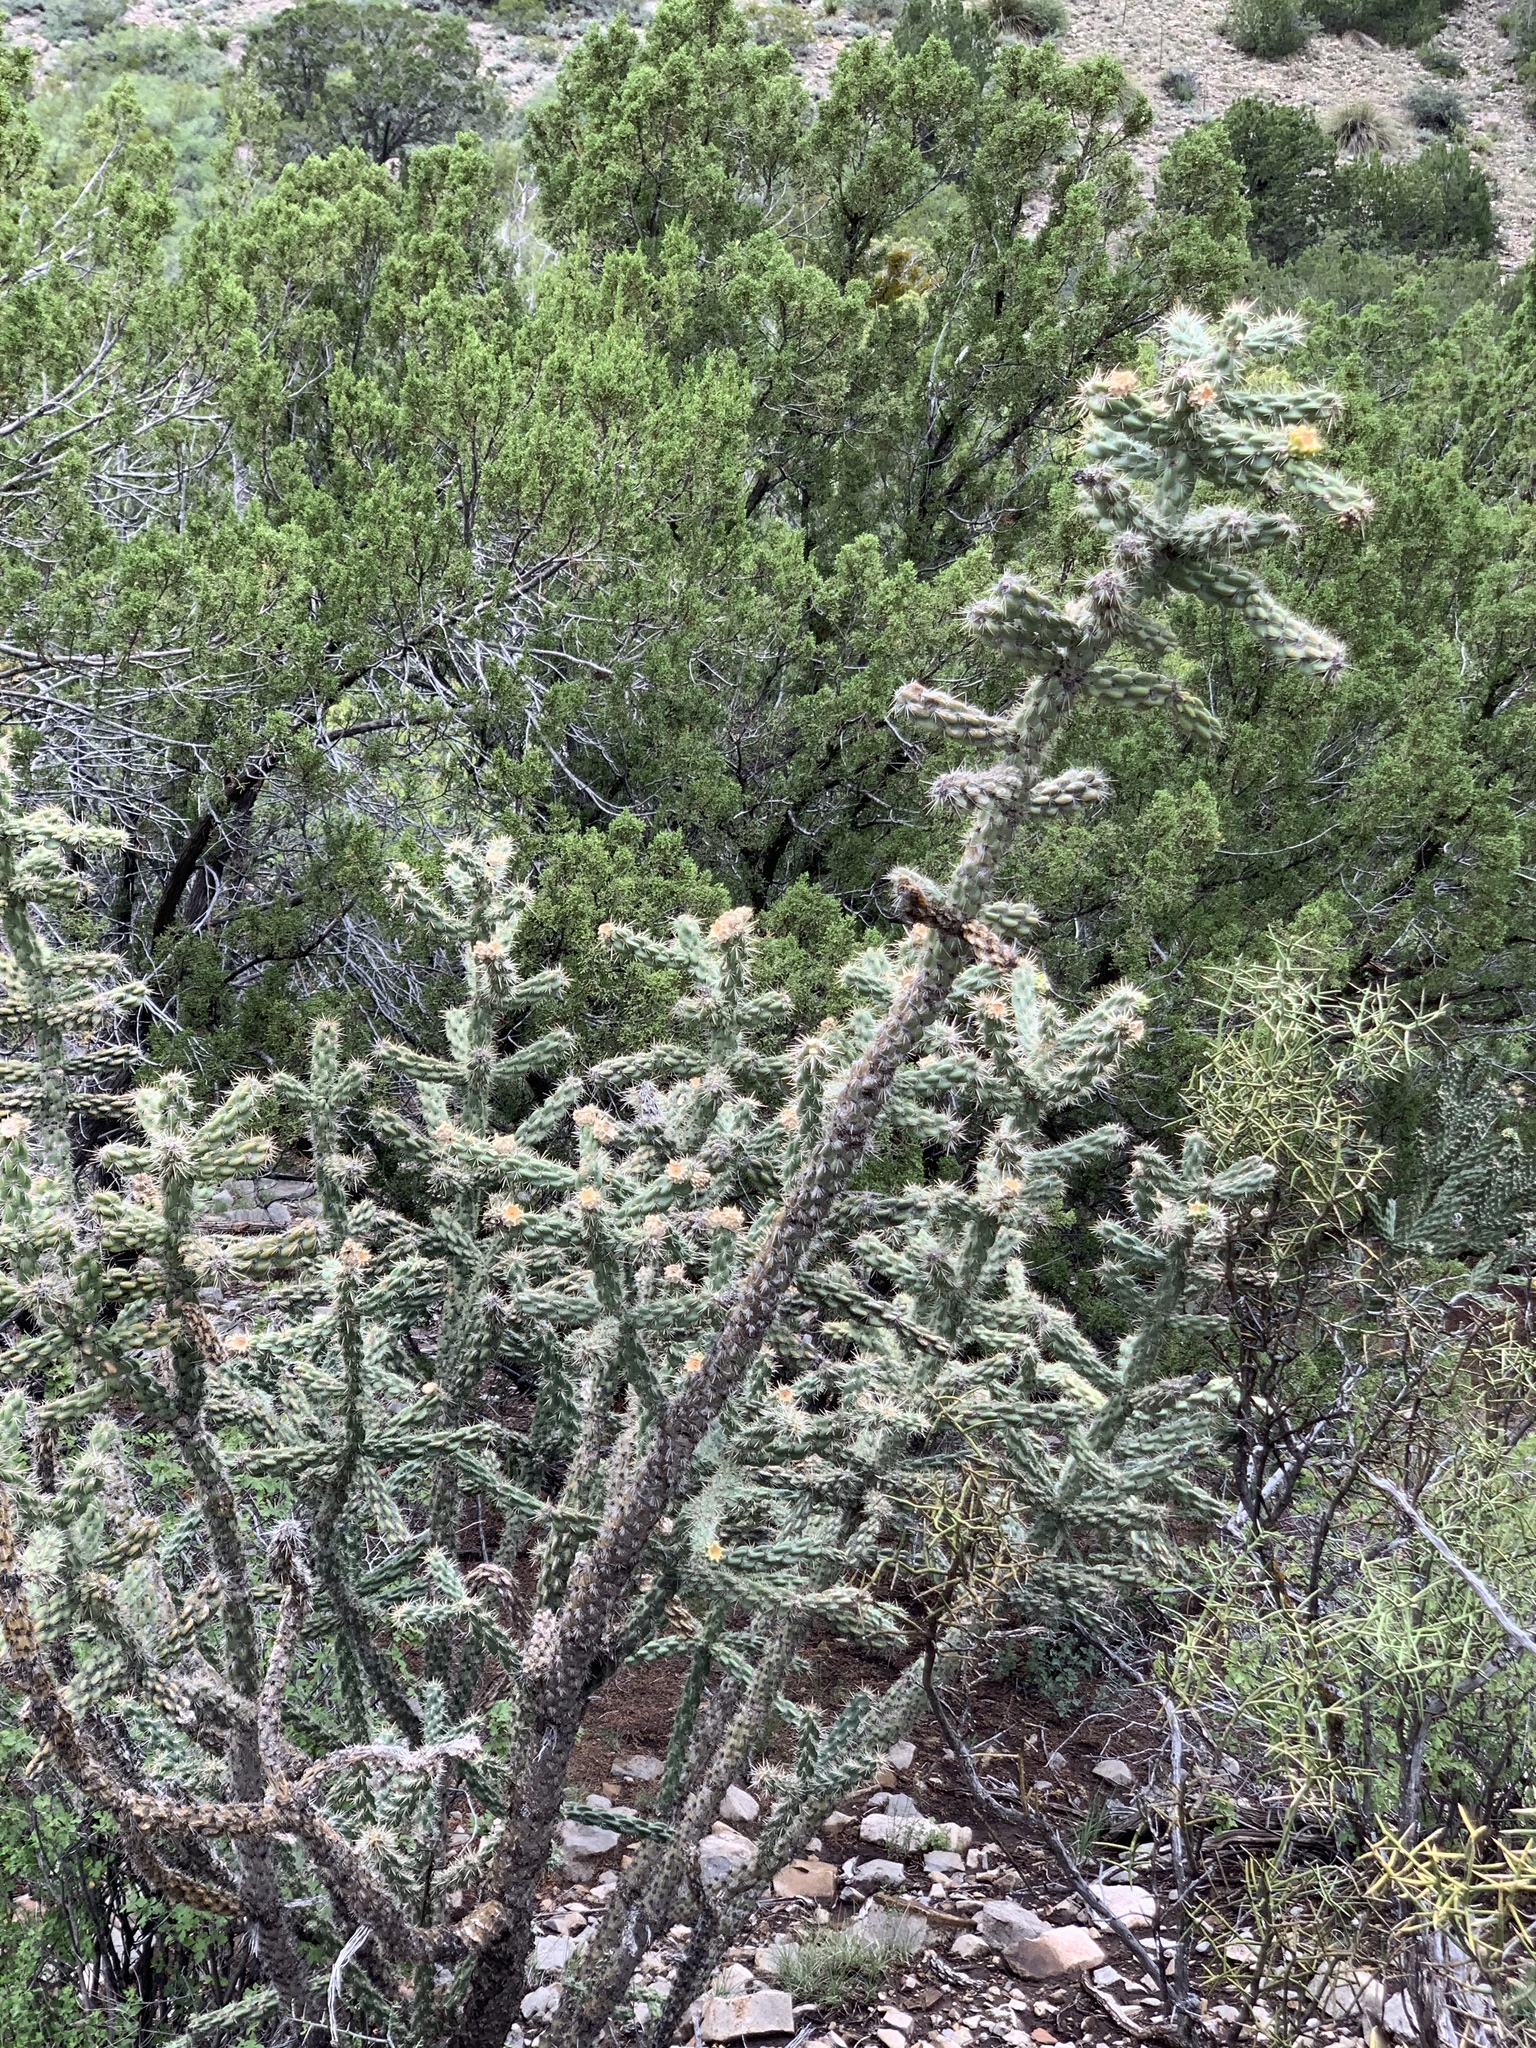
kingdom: Plantae
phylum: Tracheophyta
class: Magnoliopsida
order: Caryophyllales
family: Cactaceae
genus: Cylindropuntia
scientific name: Cylindropuntia imbricata
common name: Candelabrum cactus
